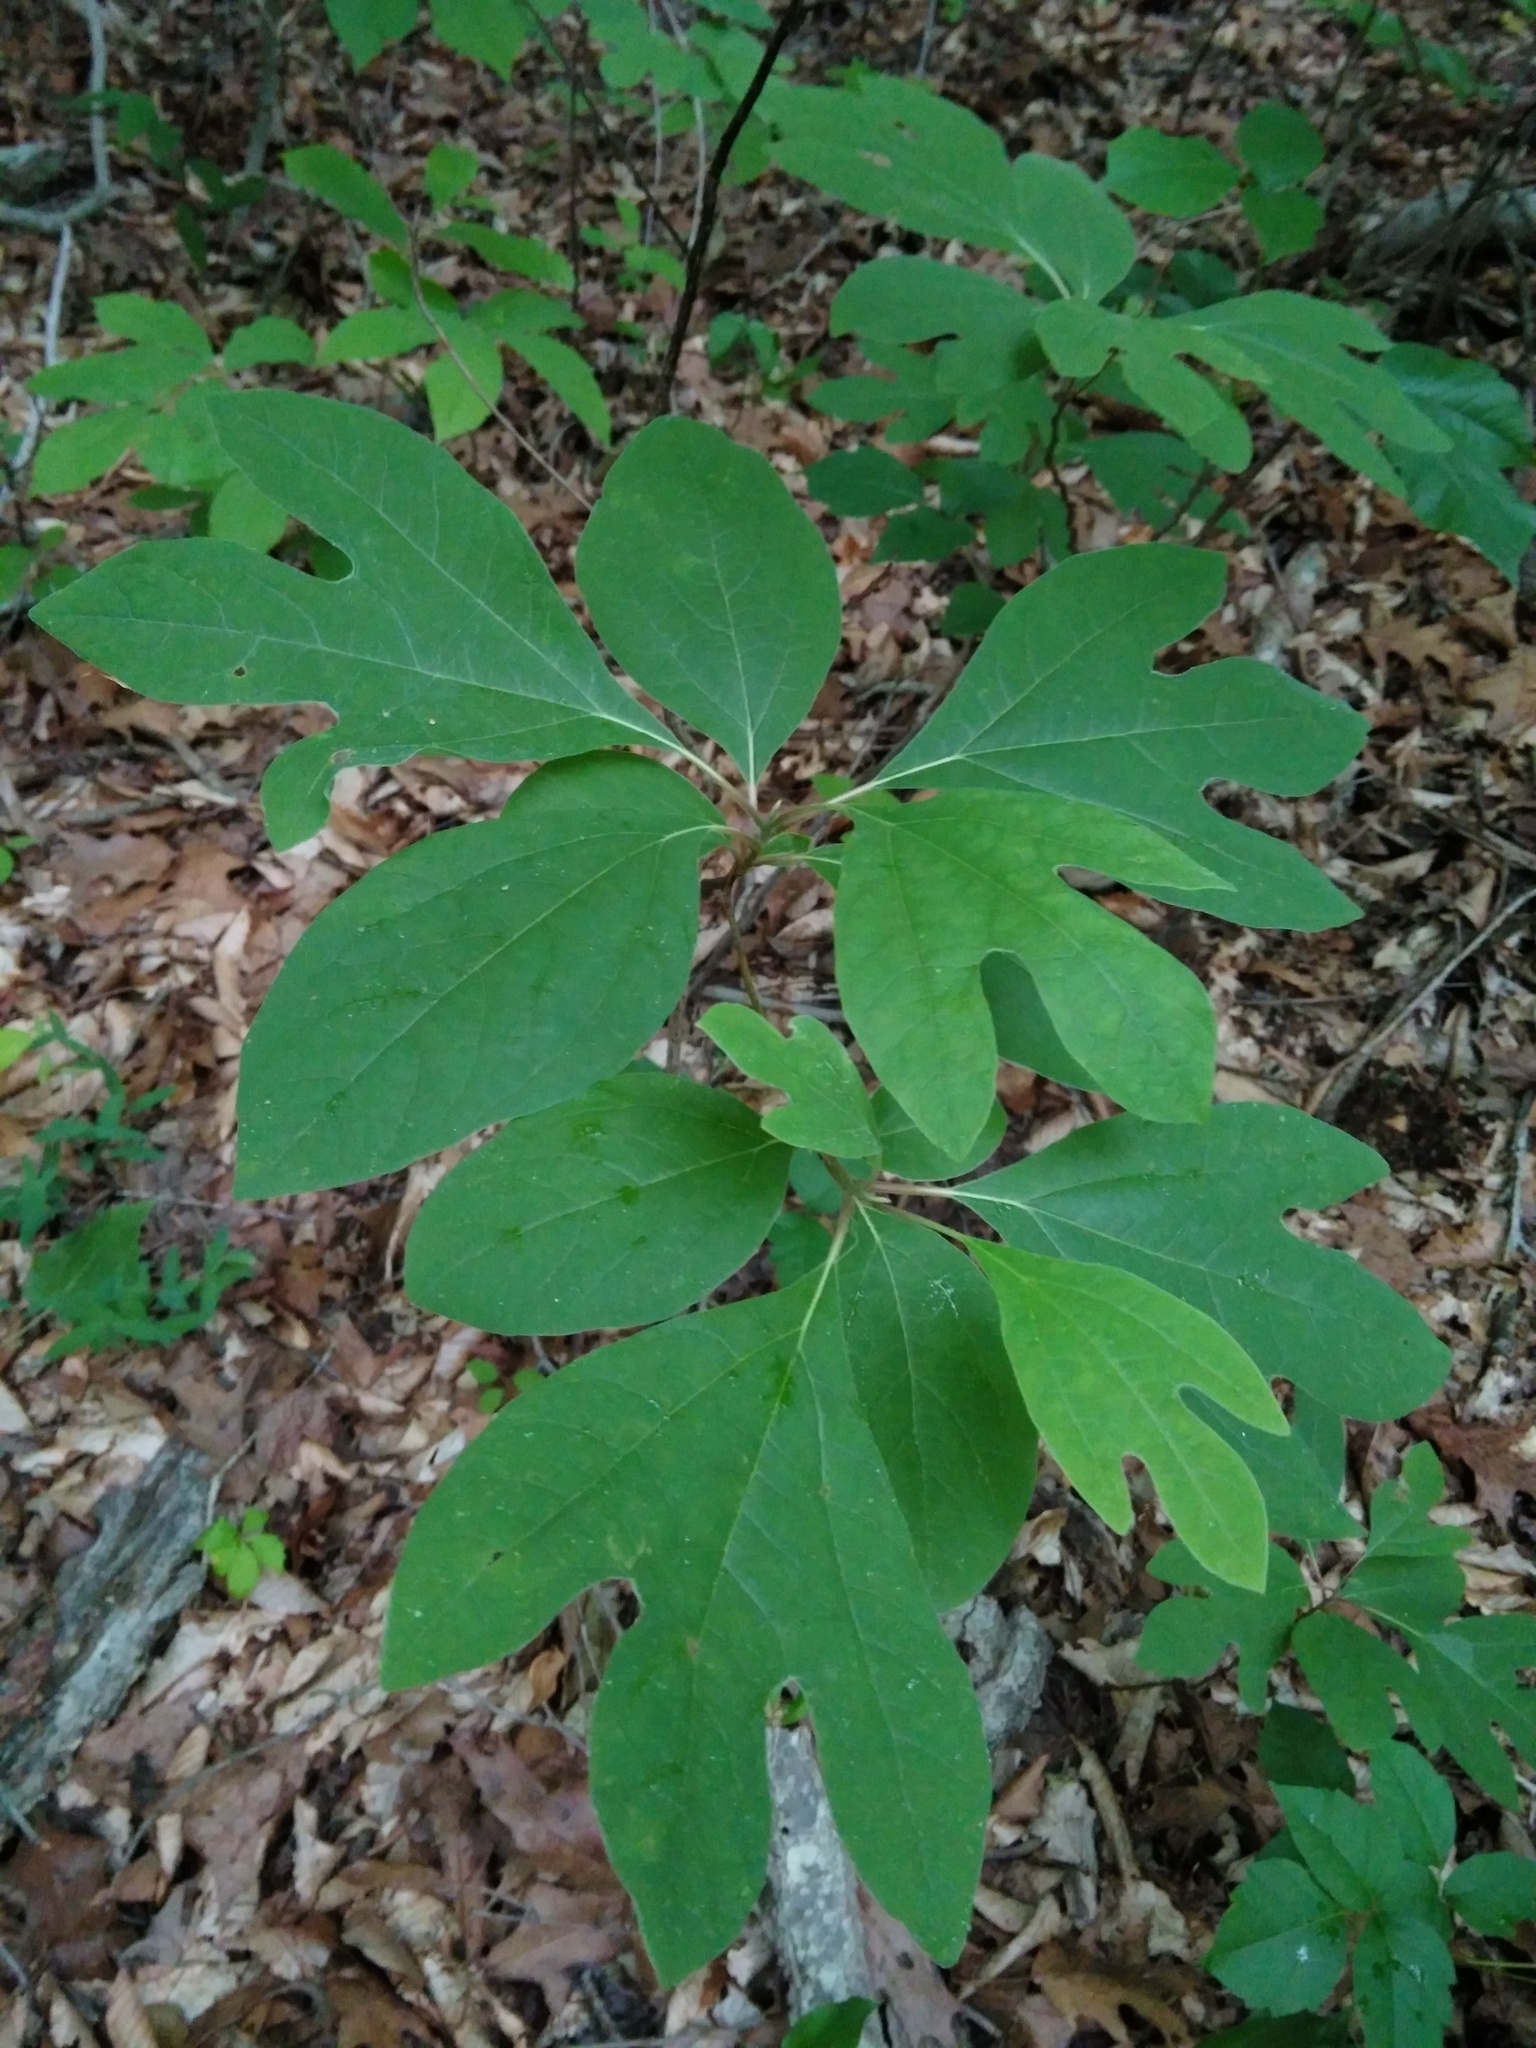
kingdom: Plantae
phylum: Tracheophyta
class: Magnoliopsida
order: Laurales
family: Lauraceae
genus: Sassafras
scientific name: Sassafras albidum
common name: Sassafras
